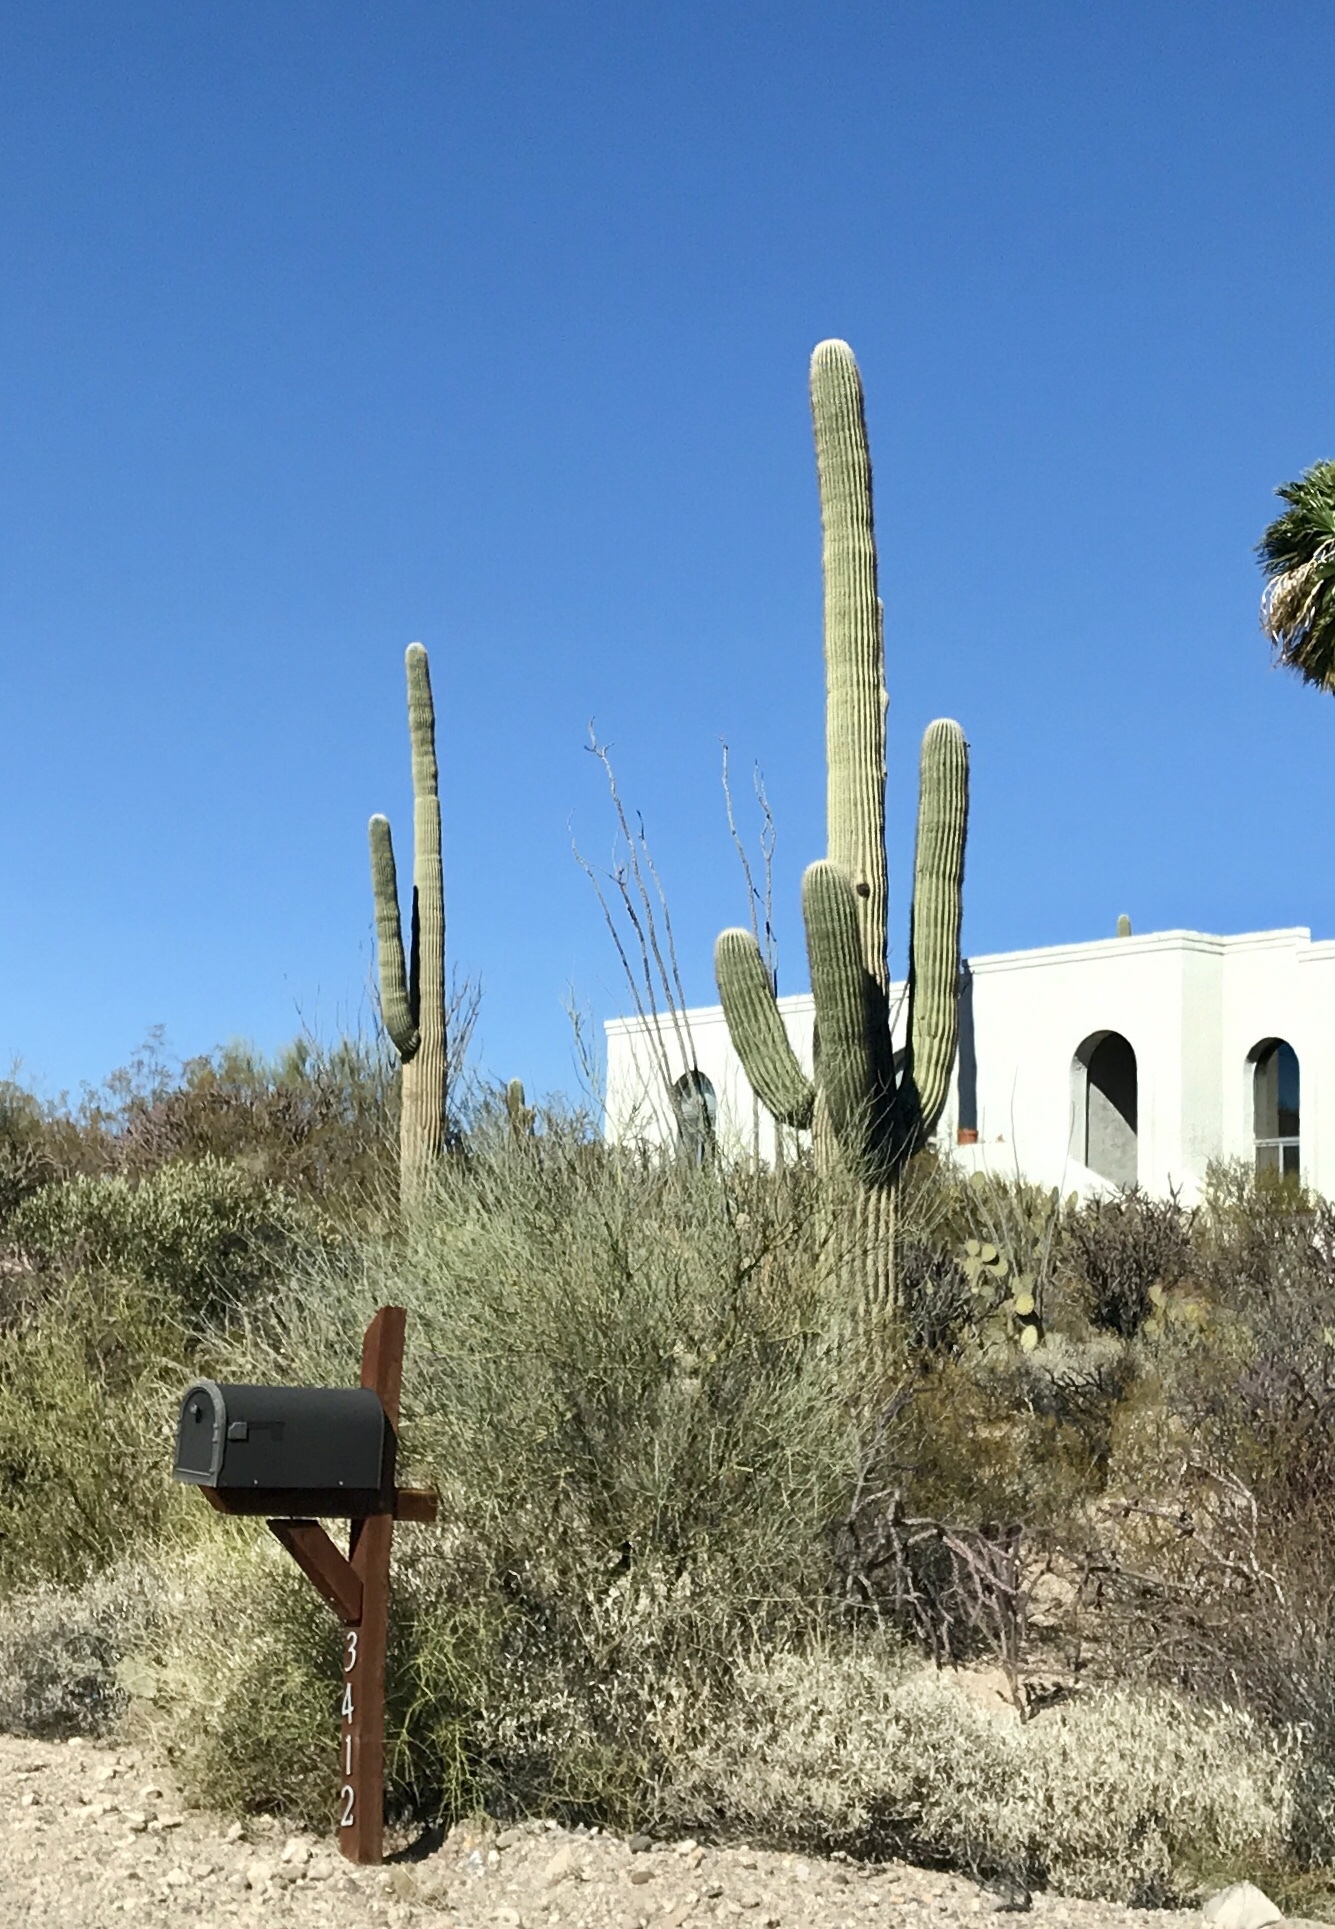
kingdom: Plantae
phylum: Tracheophyta
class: Magnoliopsida
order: Caryophyllales
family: Cactaceae
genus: Carnegiea
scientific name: Carnegiea gigantea
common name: Saguaro
